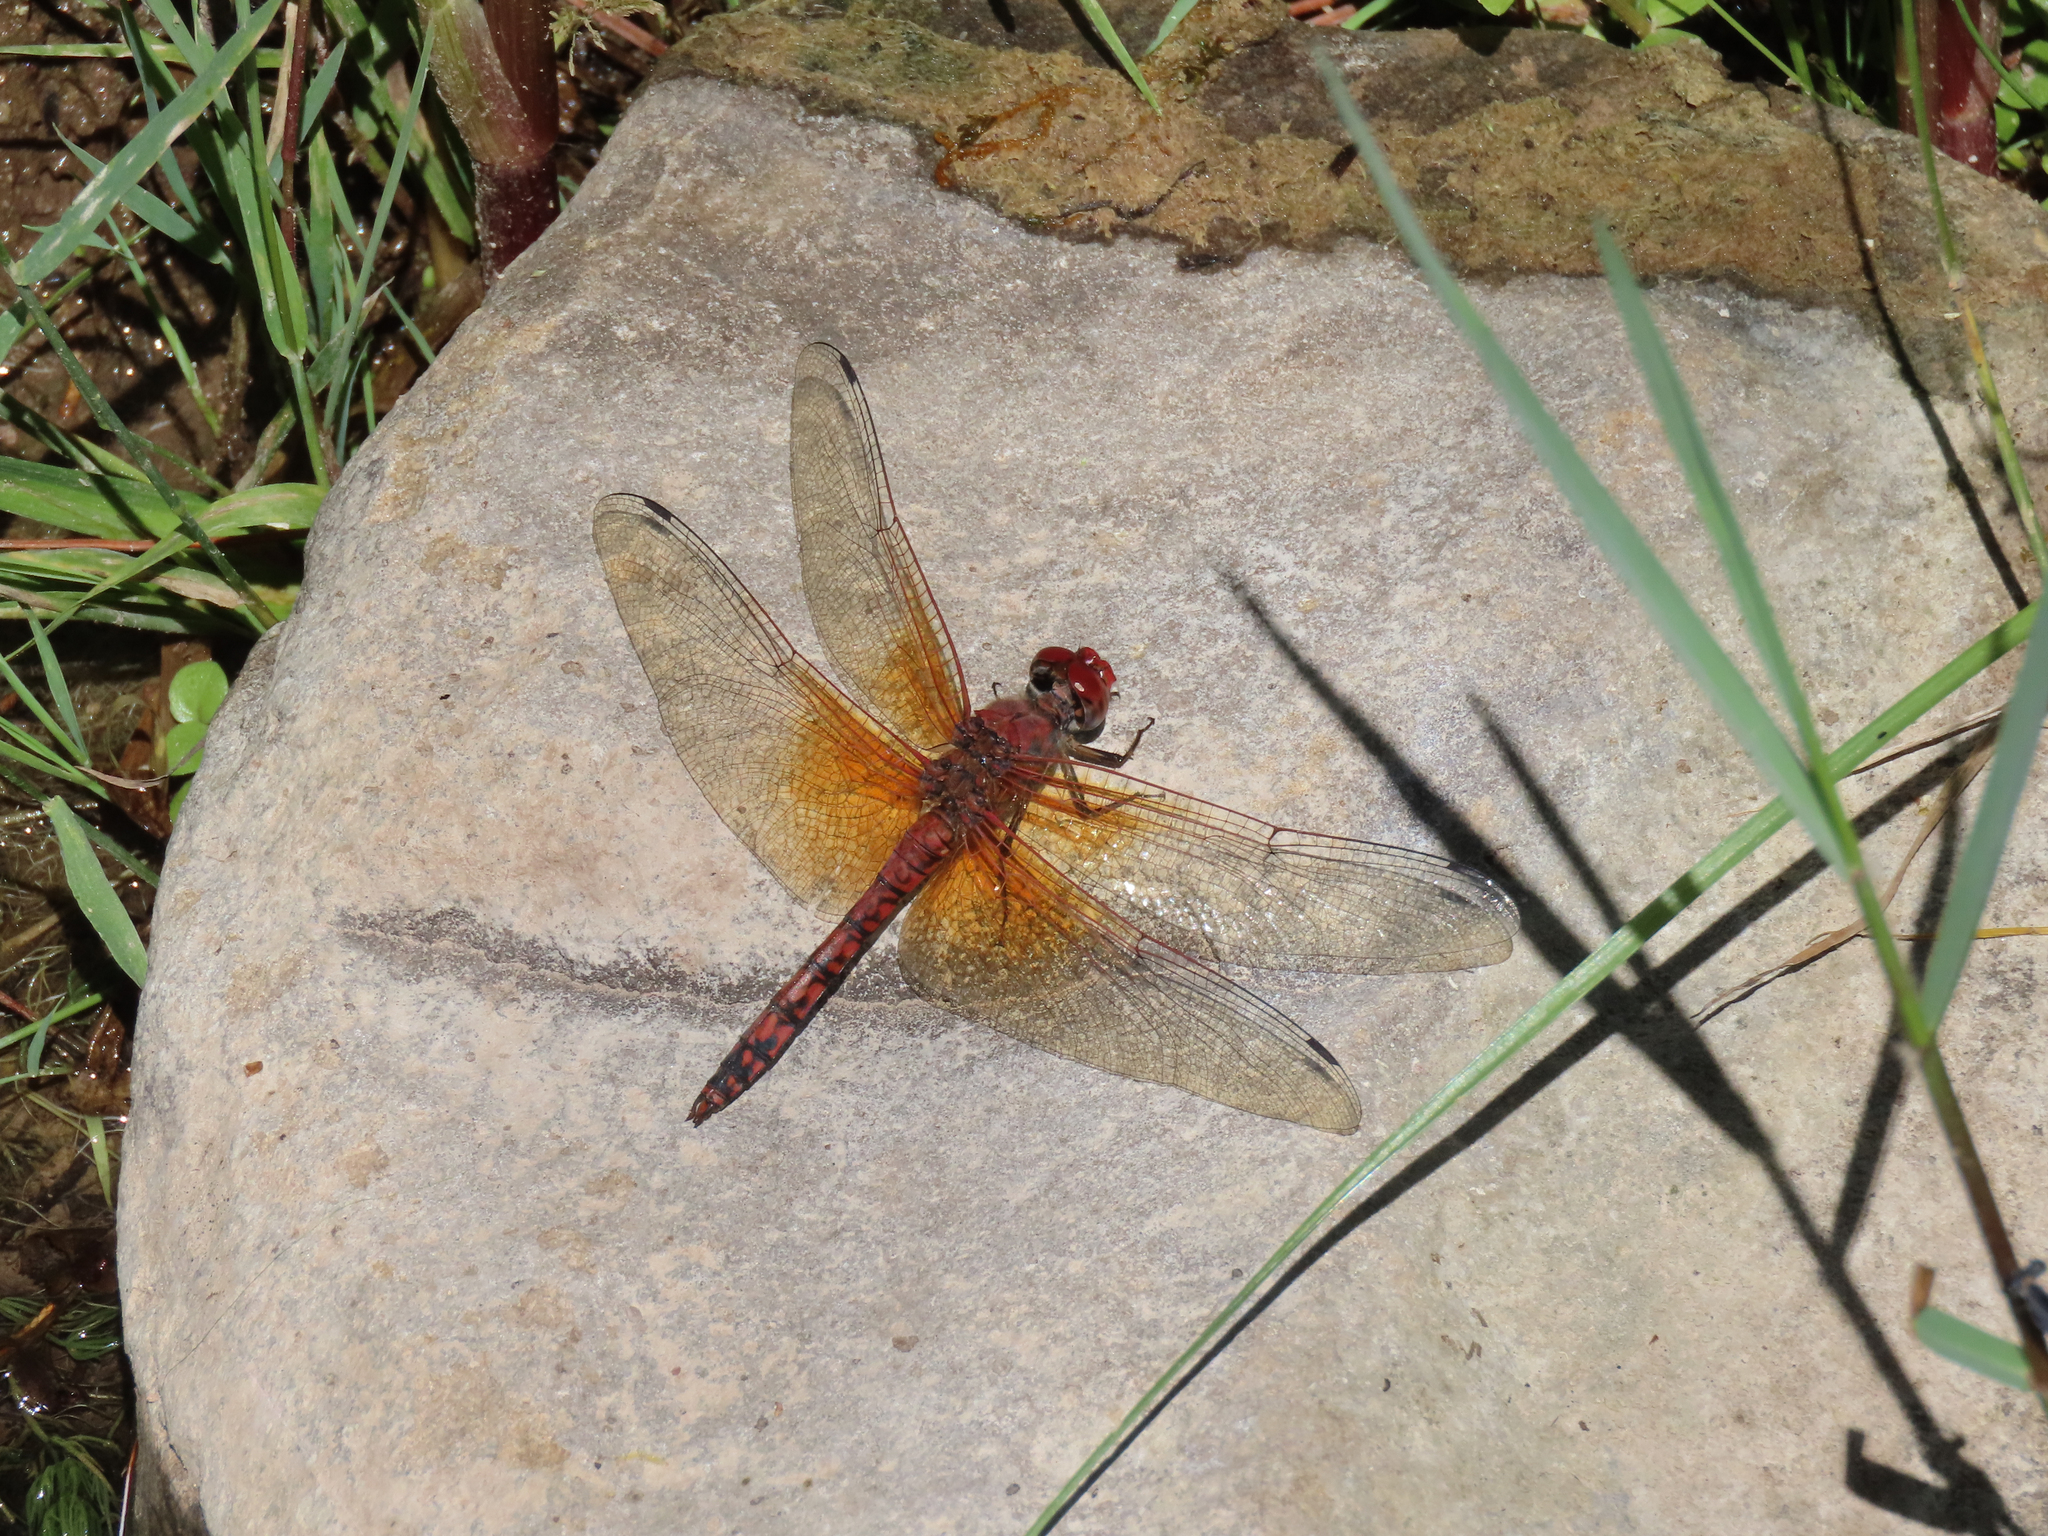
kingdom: Animalia
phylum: Arthropoda
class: Insecta
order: Odonata
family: Libellulidae
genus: Paltothemis
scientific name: Paltothemis lineatipes
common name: Red rock skimmer
